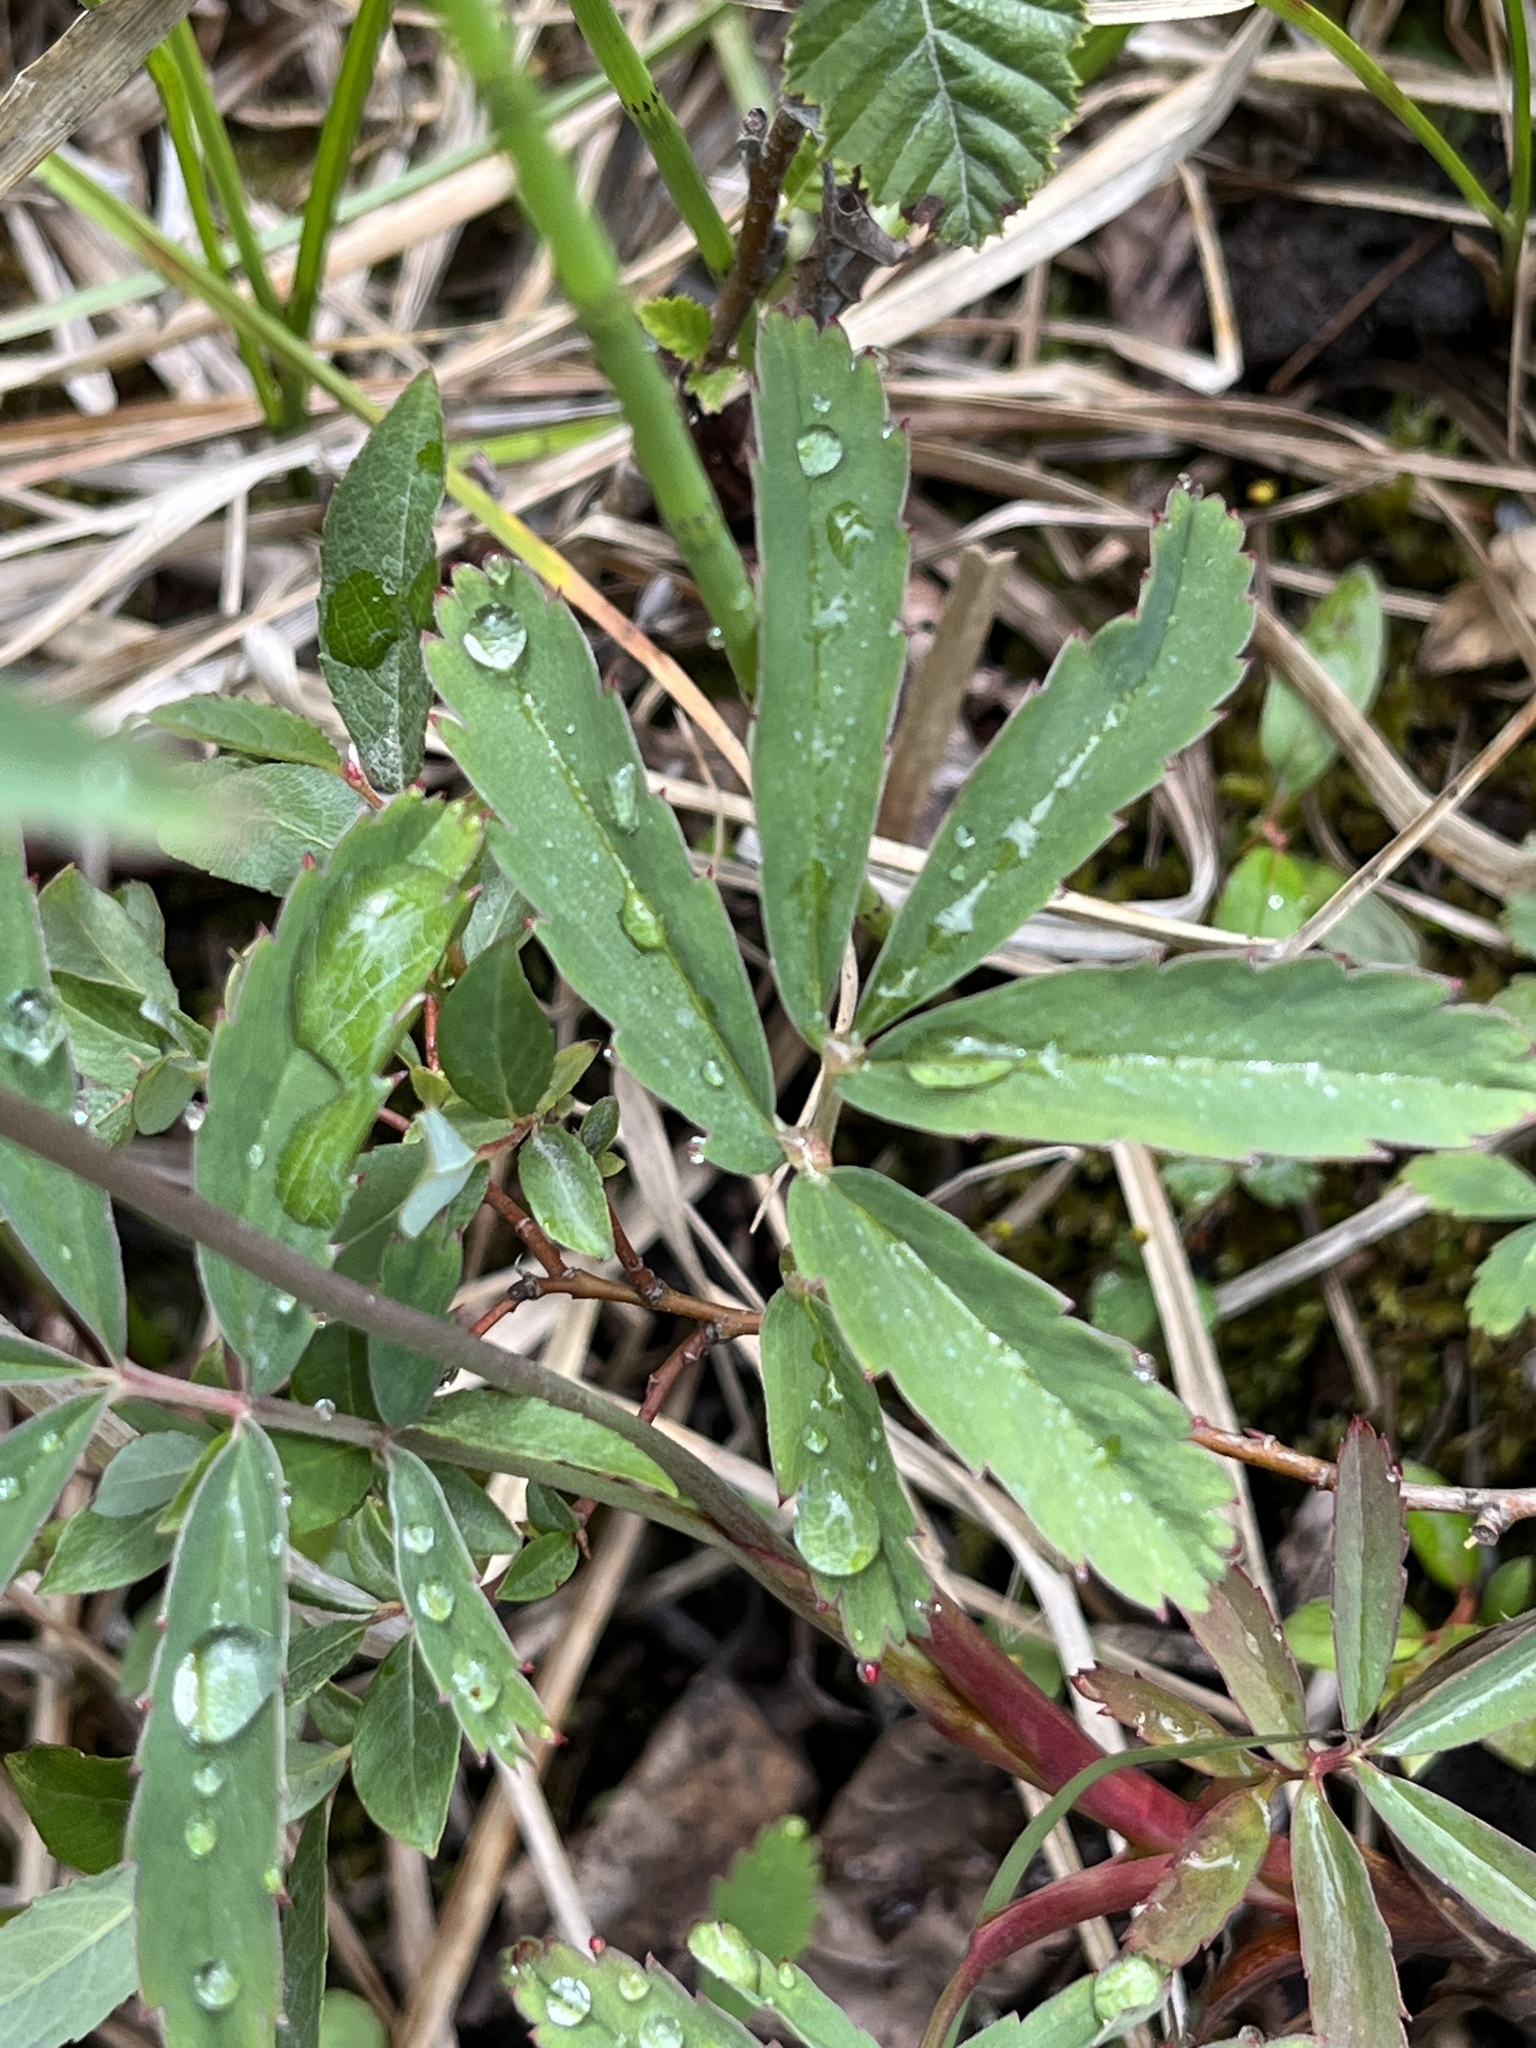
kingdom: Plantae
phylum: Tracheophyta
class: Magnoliopsida
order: Rosales
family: Rosaceae
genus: Comarum
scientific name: Comarum palustre
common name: Marsh cinquefoil
